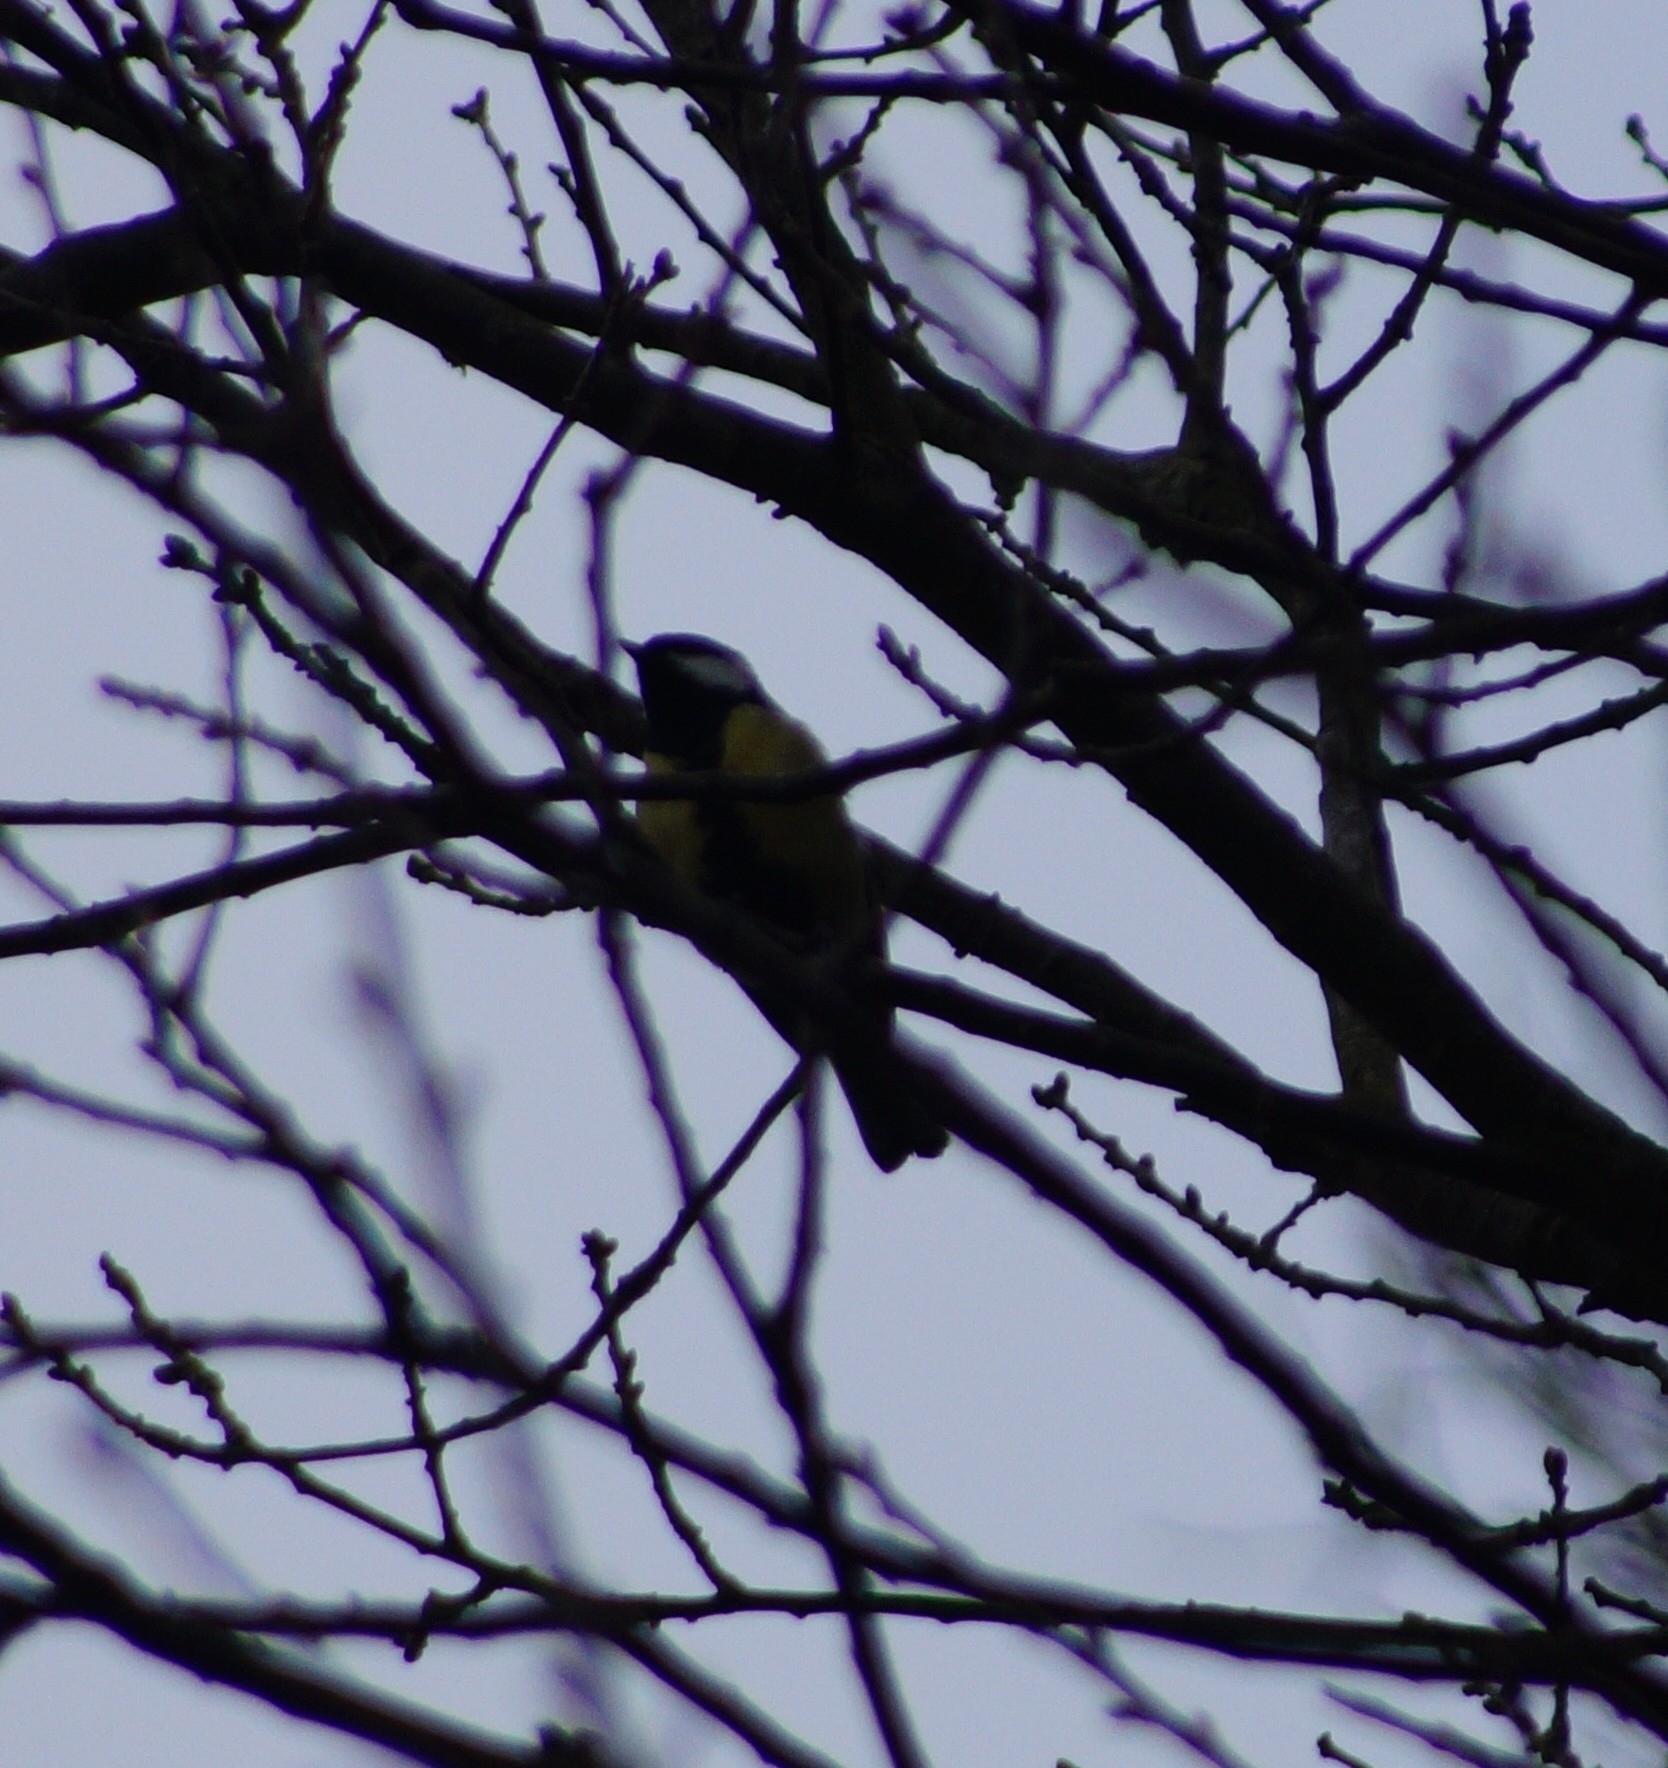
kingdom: Animalia
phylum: Chordata
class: Aves
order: Passeriformes
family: Paridae
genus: Parus
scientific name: Parus major
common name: Great tit
